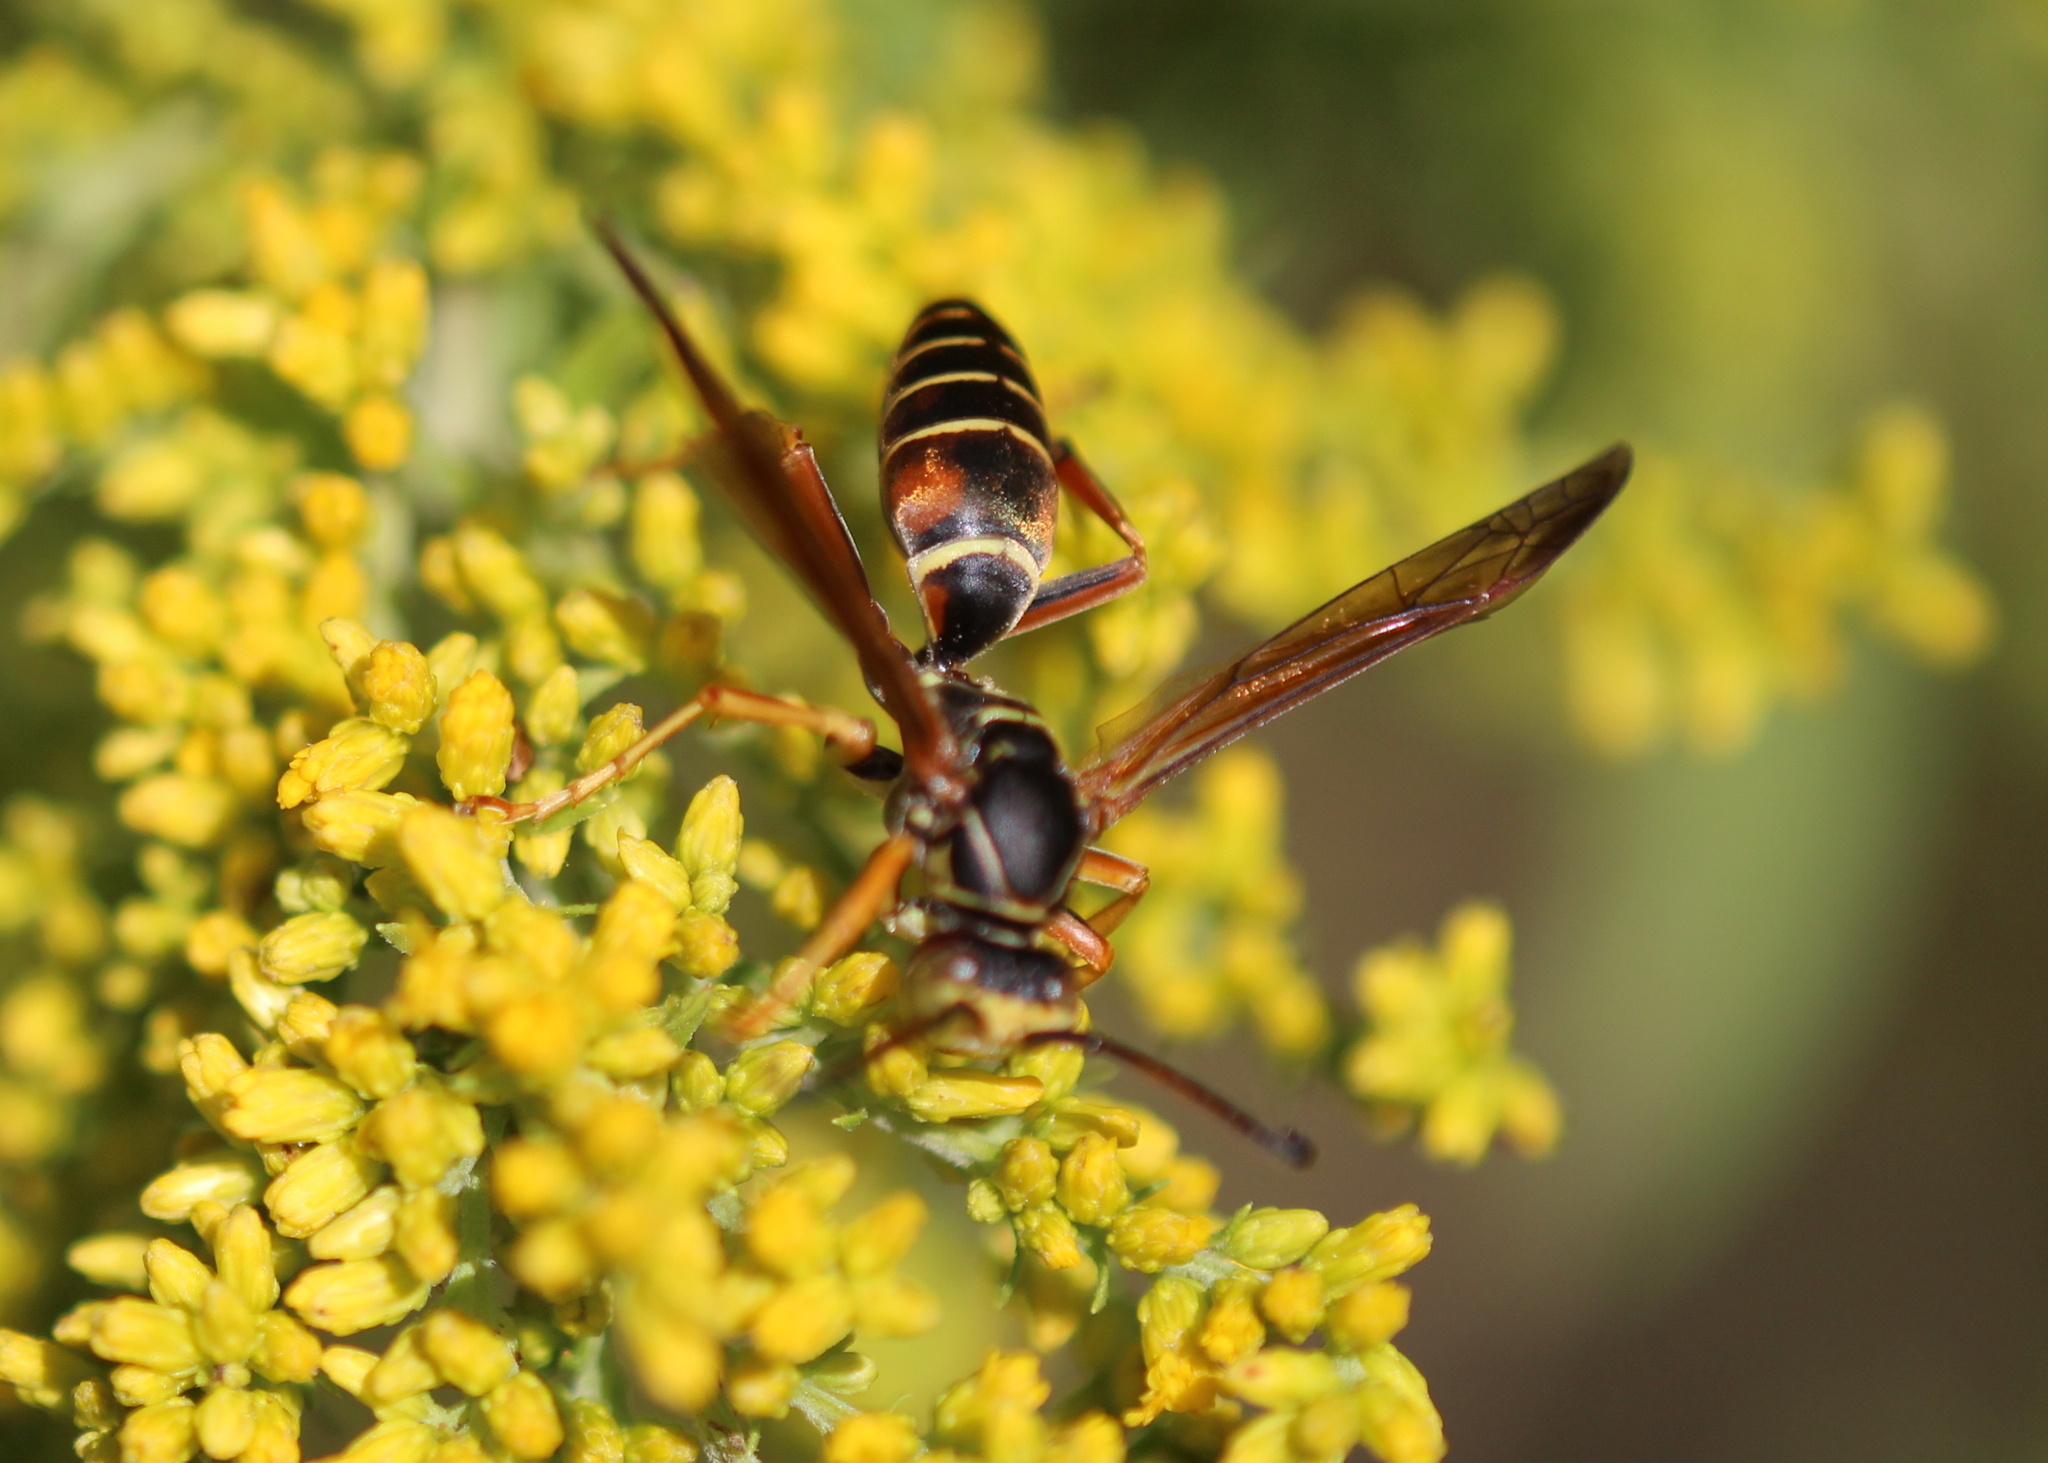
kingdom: Animalia
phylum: Arthropoda
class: Insecta
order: Hymenoptera
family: Eumenidae
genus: Polistes
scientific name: Polistes fuscatus
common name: Dark paper wasp
